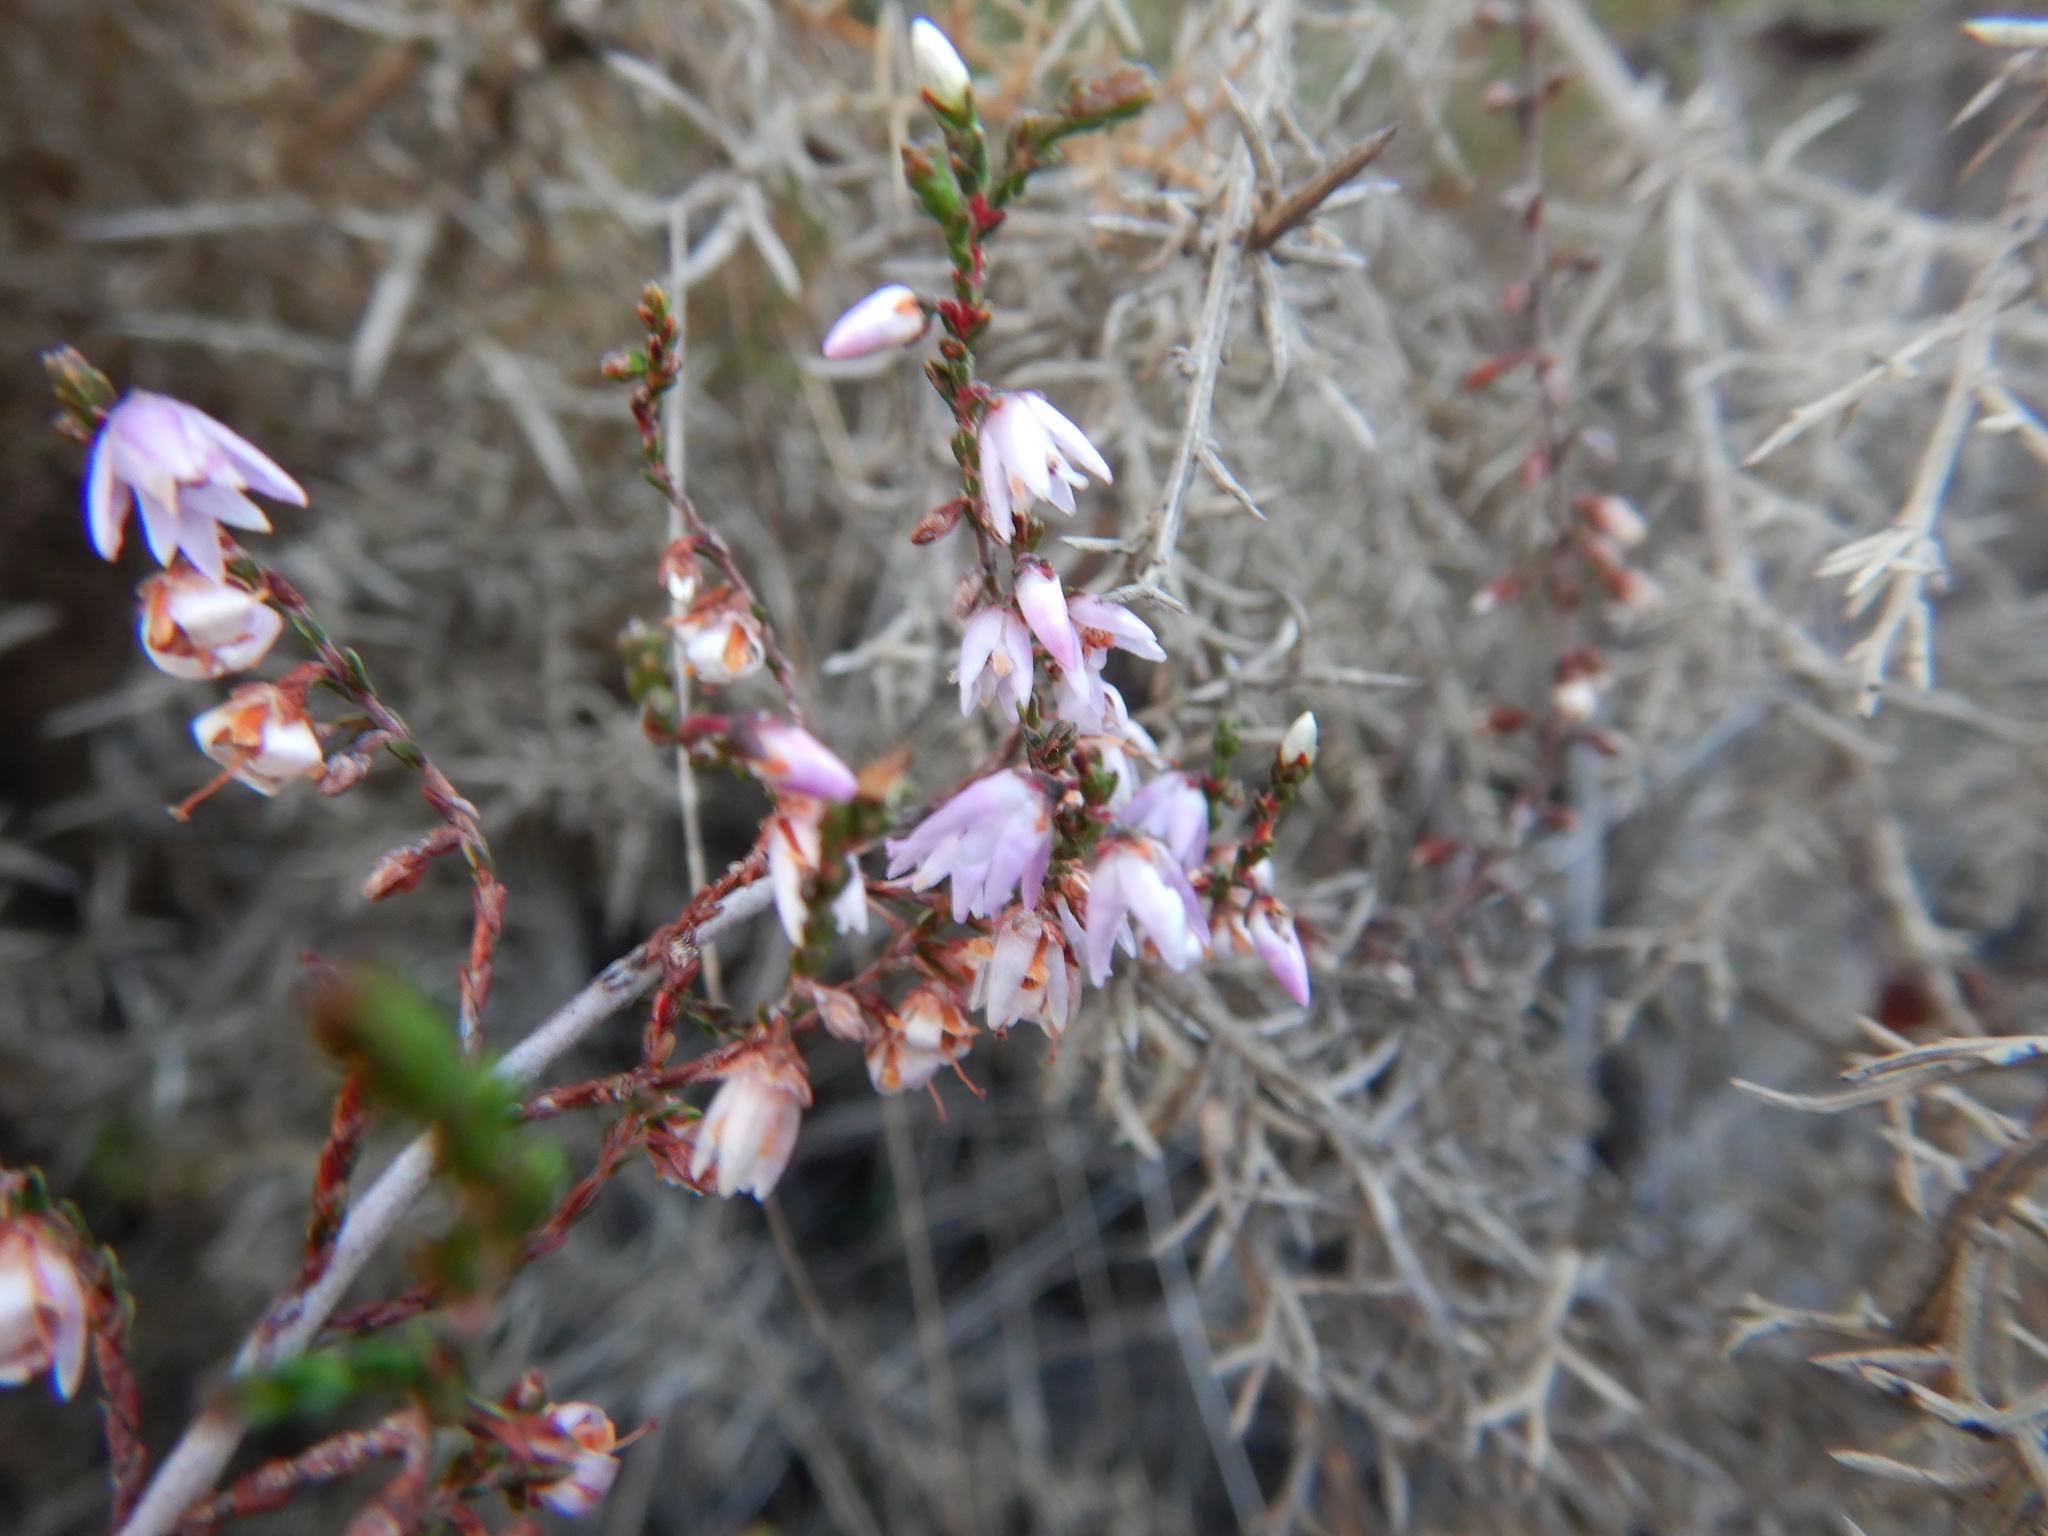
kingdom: Plantae
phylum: Tracheophyta
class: Magnoliopsida
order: Ericales
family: Ericaceae
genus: Calluna
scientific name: Calluna vulgaris
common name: Heather
